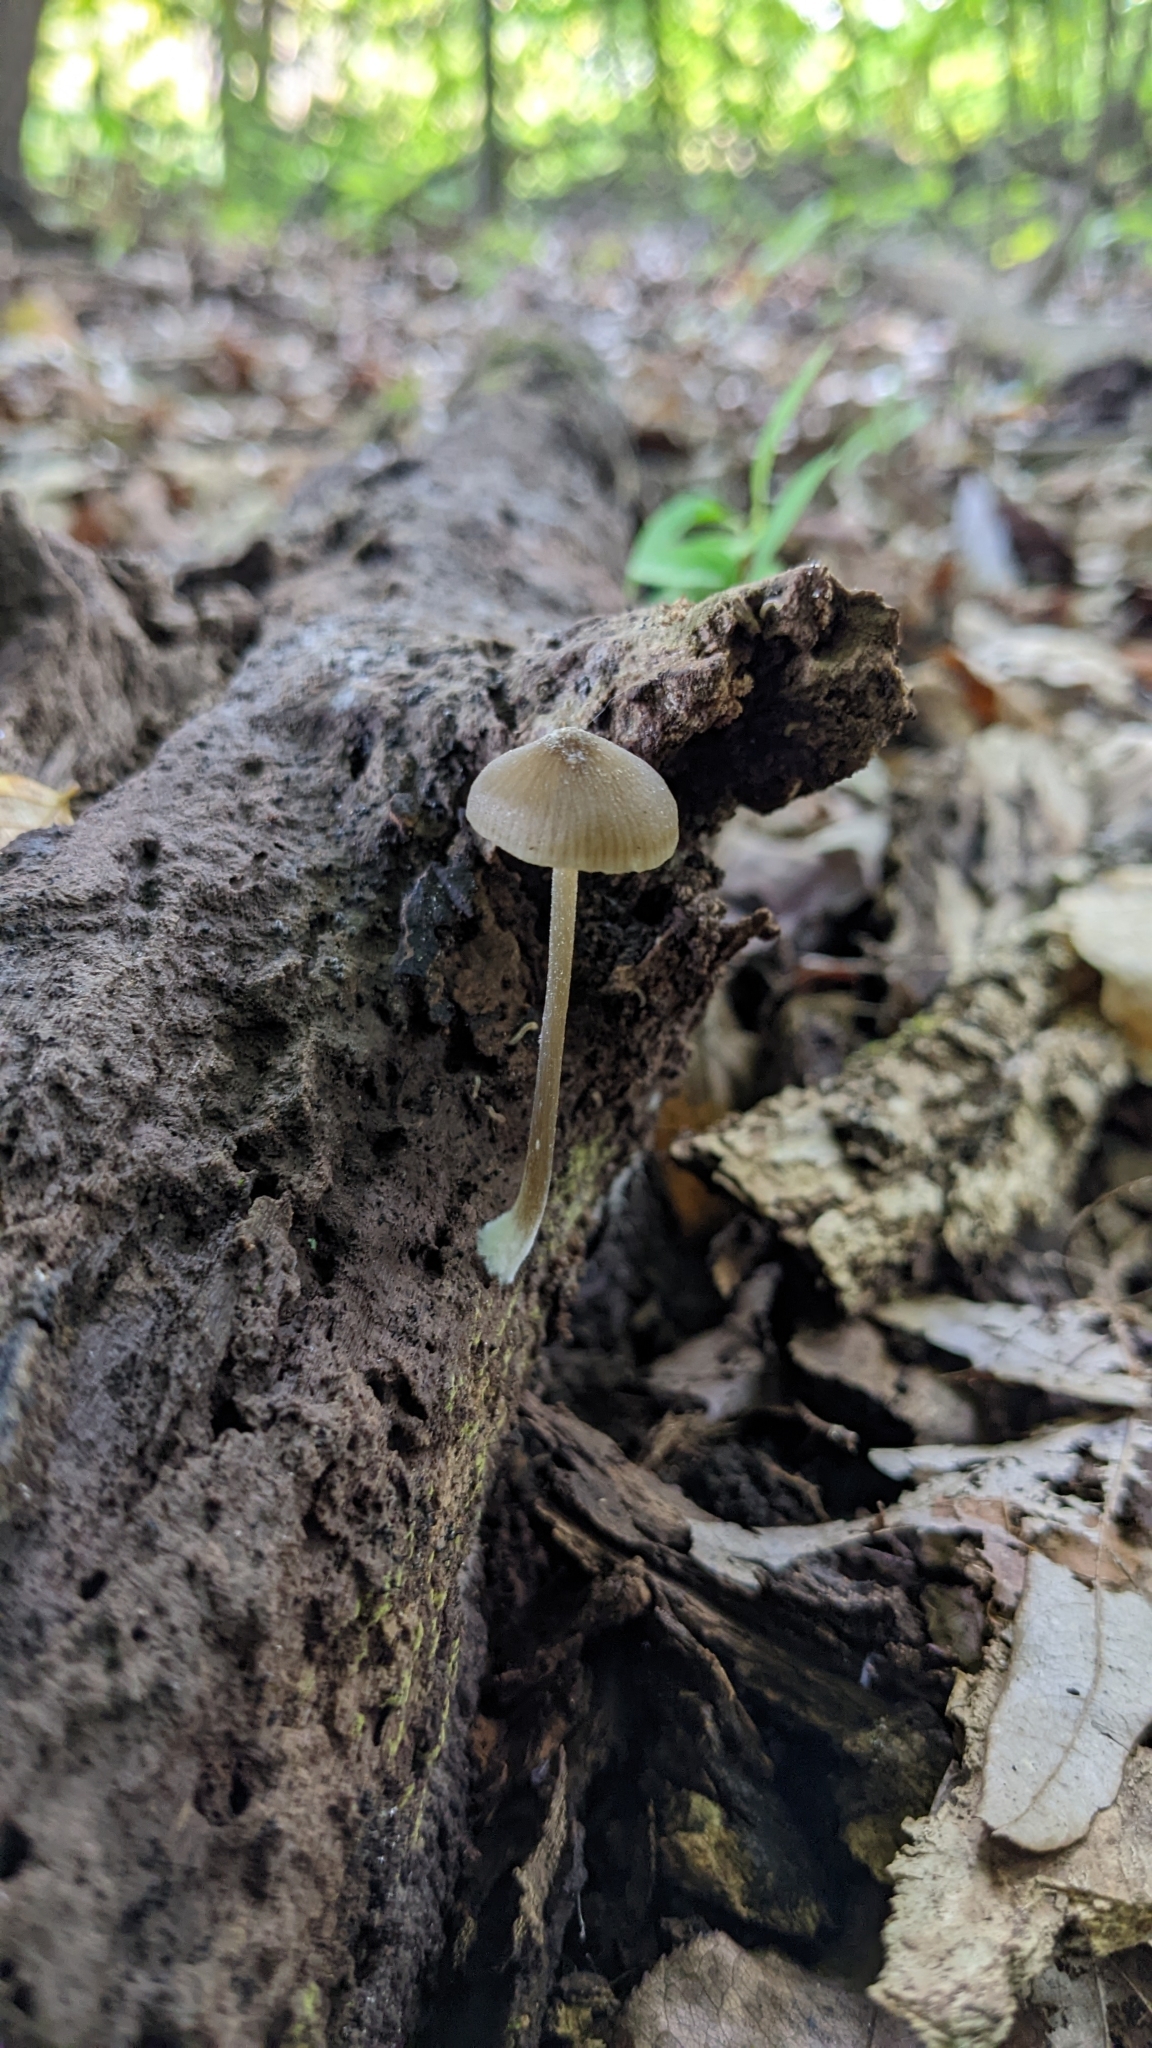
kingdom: Fungi
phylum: Basidiomycota
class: Agaricomycetes
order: Agaricales
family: Entolomataceae
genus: Entoloma
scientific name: Entoloma cuspidiferum
